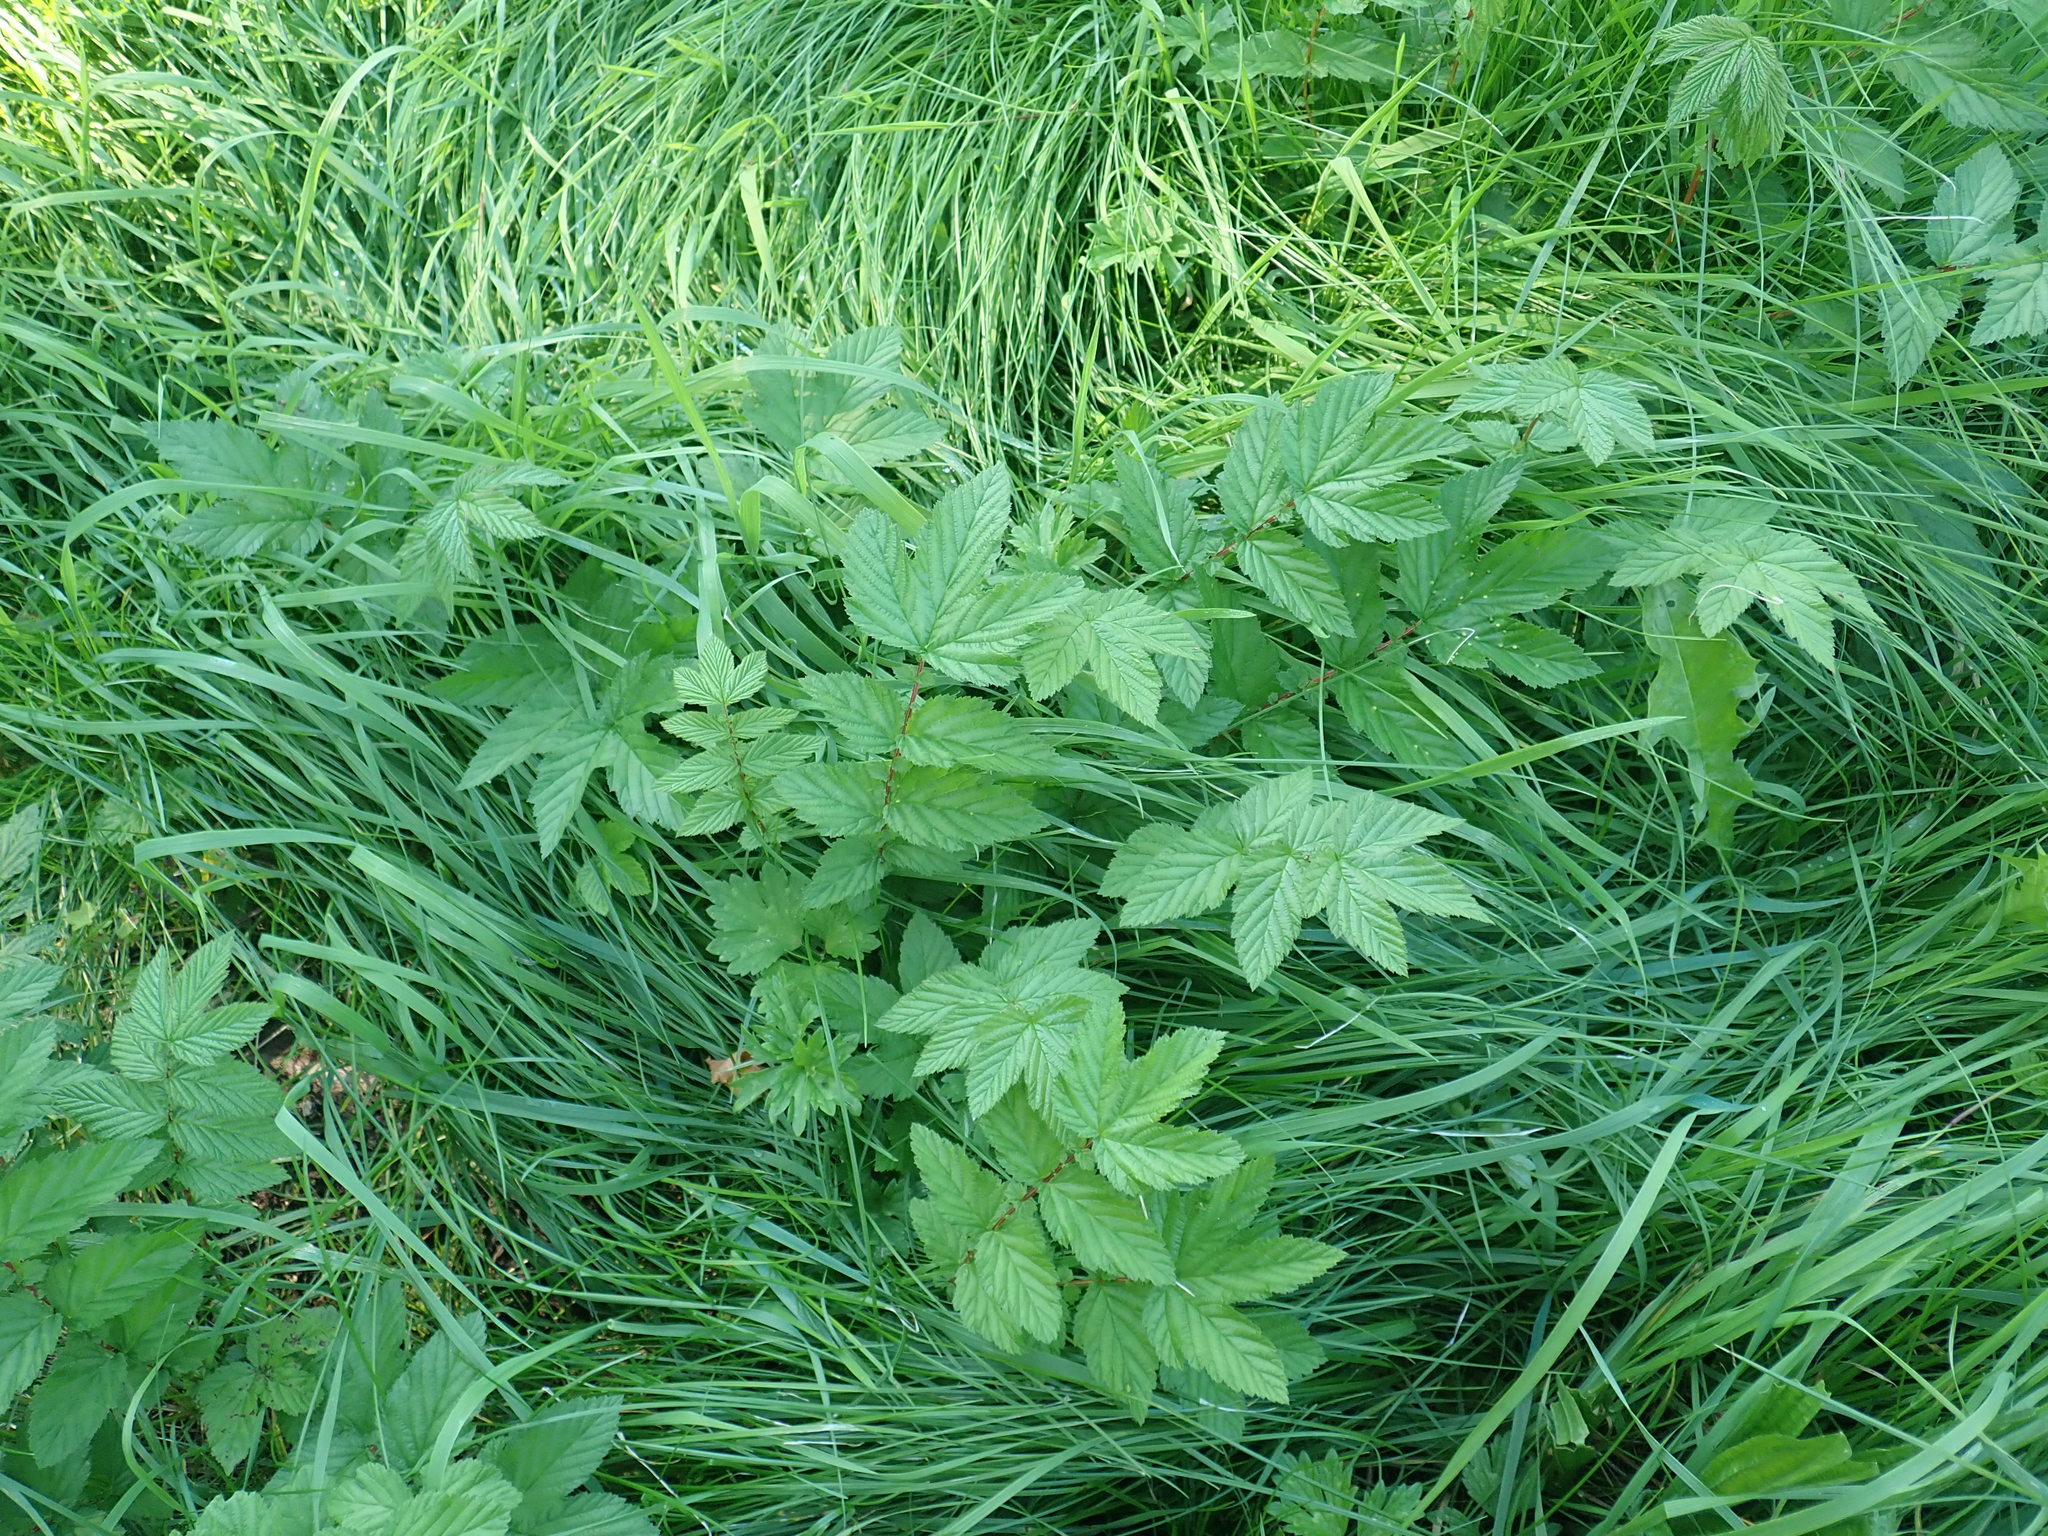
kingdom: Plantae
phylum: Tracheophyta
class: Magnoliopsida
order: Rosales
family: Rosaceae
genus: Filipendula
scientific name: Filipendula ulmaria
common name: Meadowsweet
